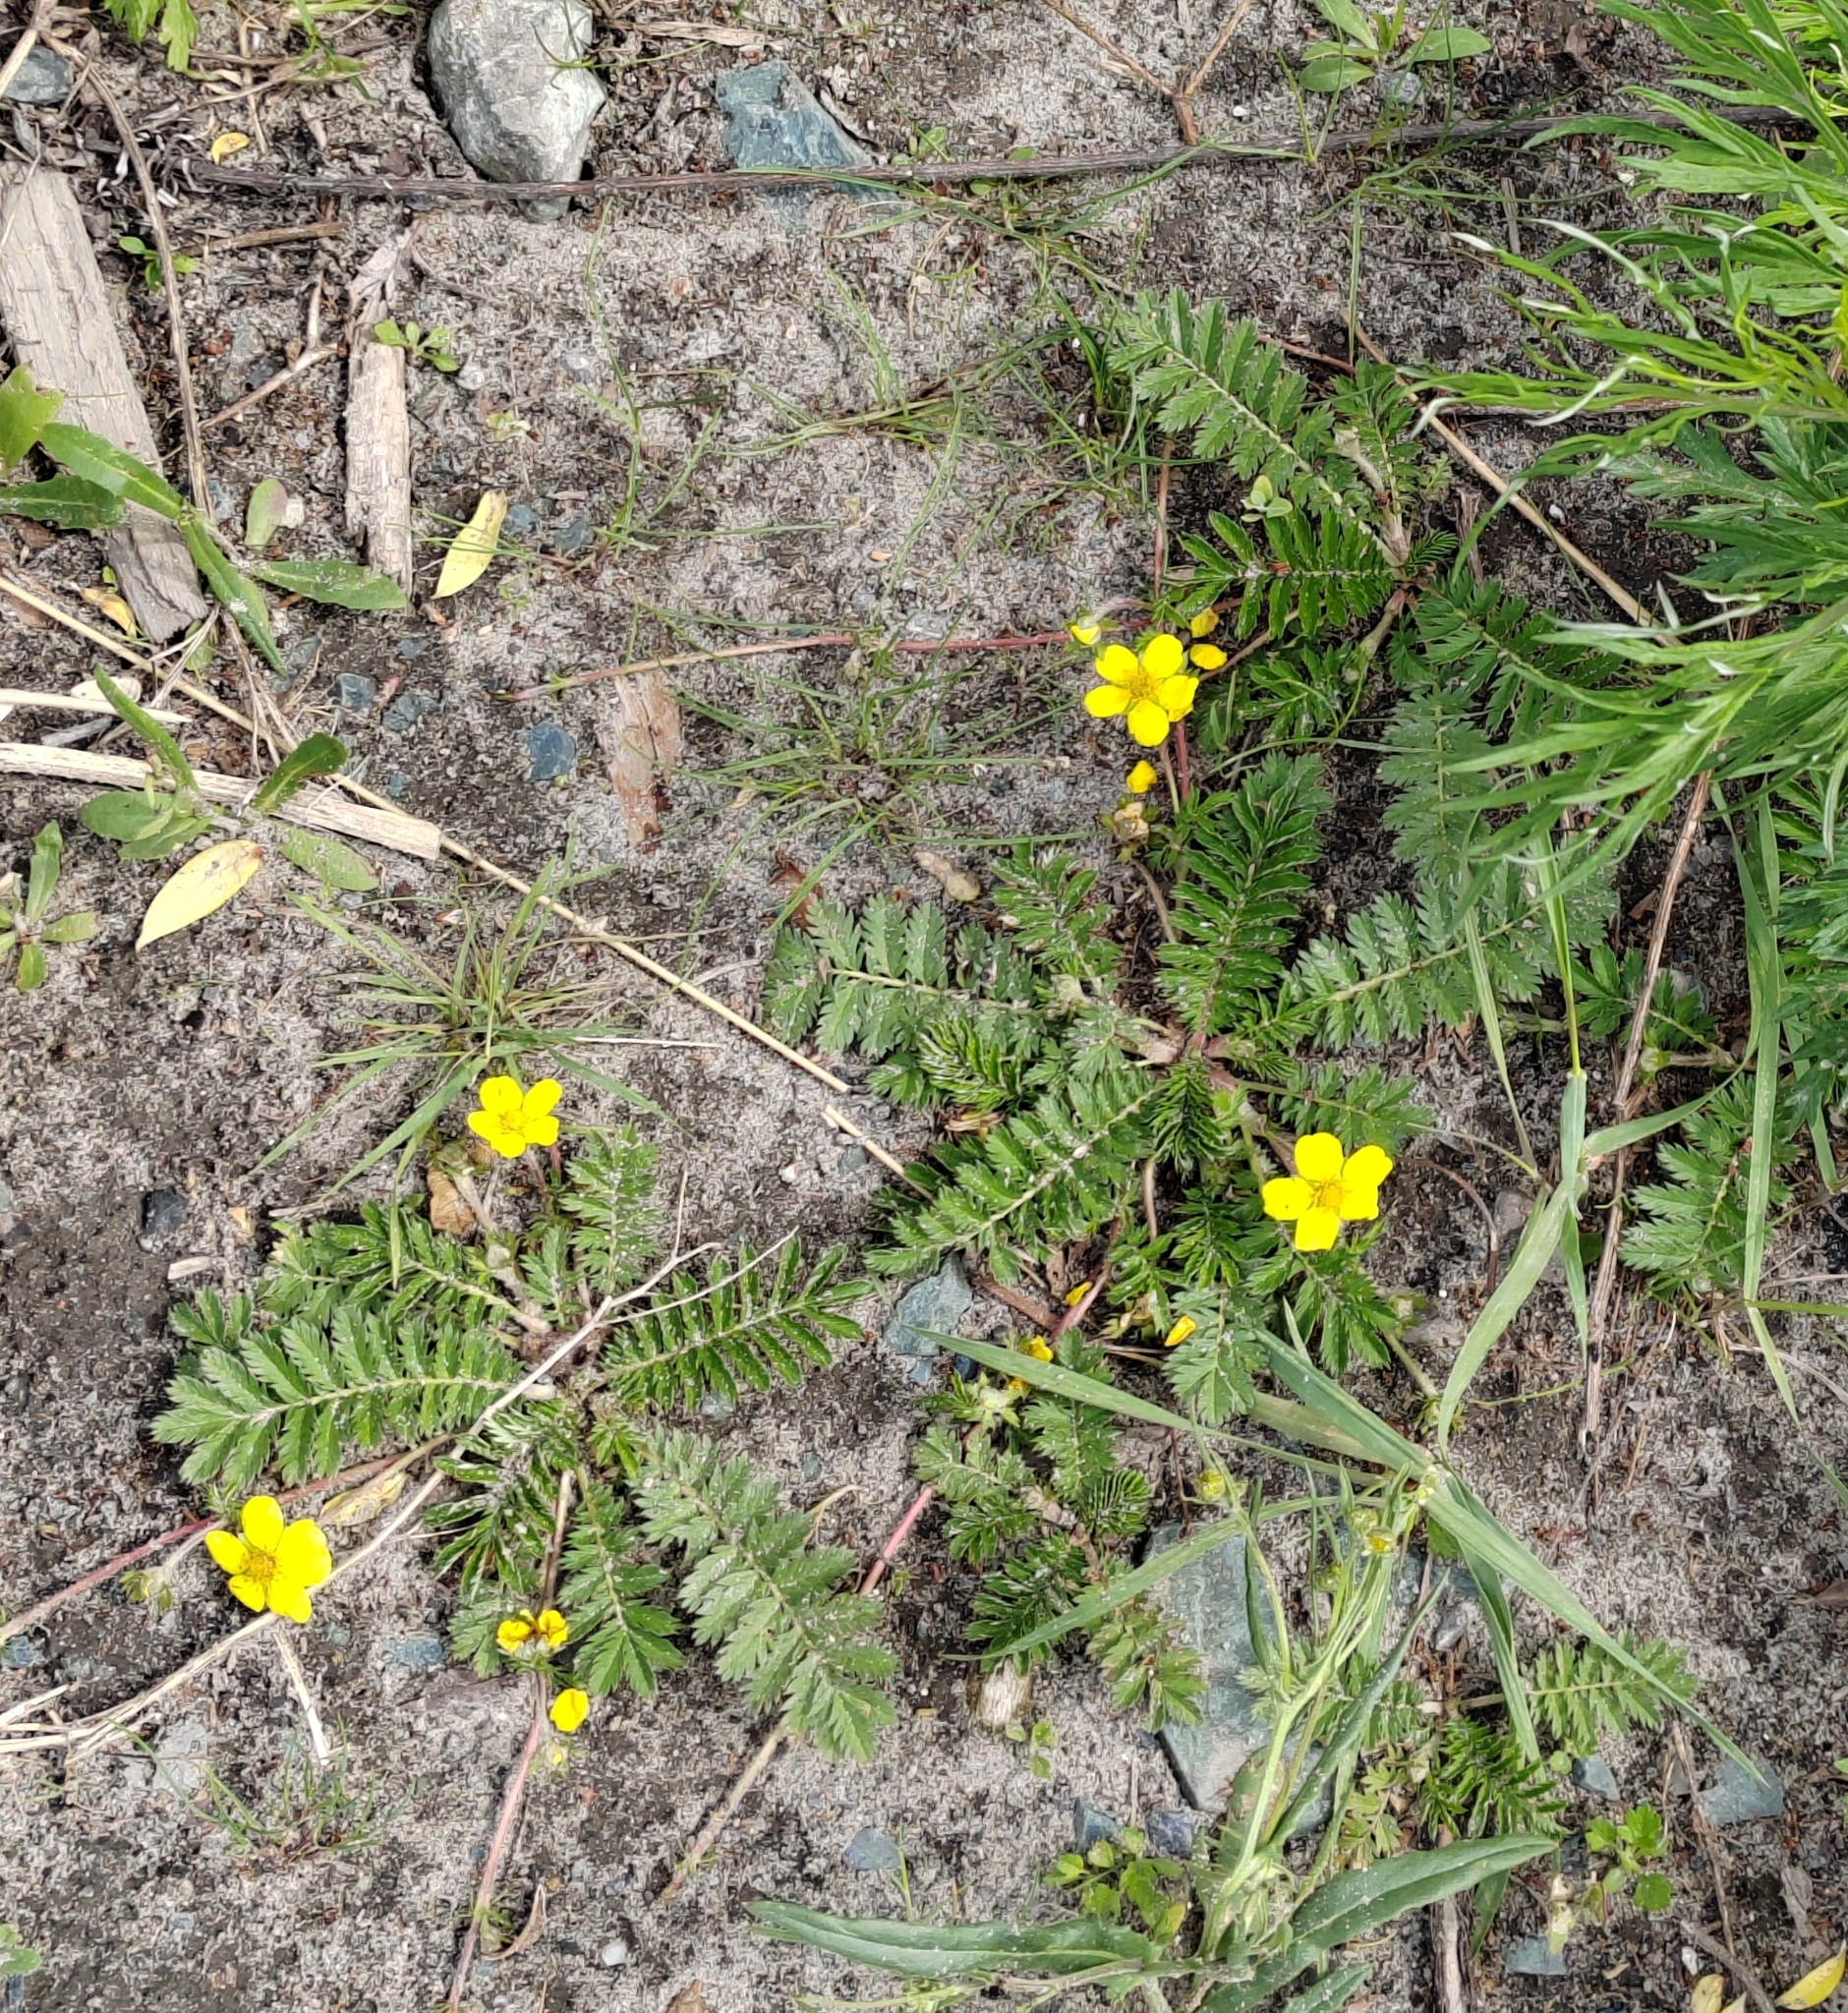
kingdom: Plantae
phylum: Tracheophyta
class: Magnoliopsida
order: Rosales
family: Rosaceae
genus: Argentina
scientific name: Argentina anserina
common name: Common silverweed
